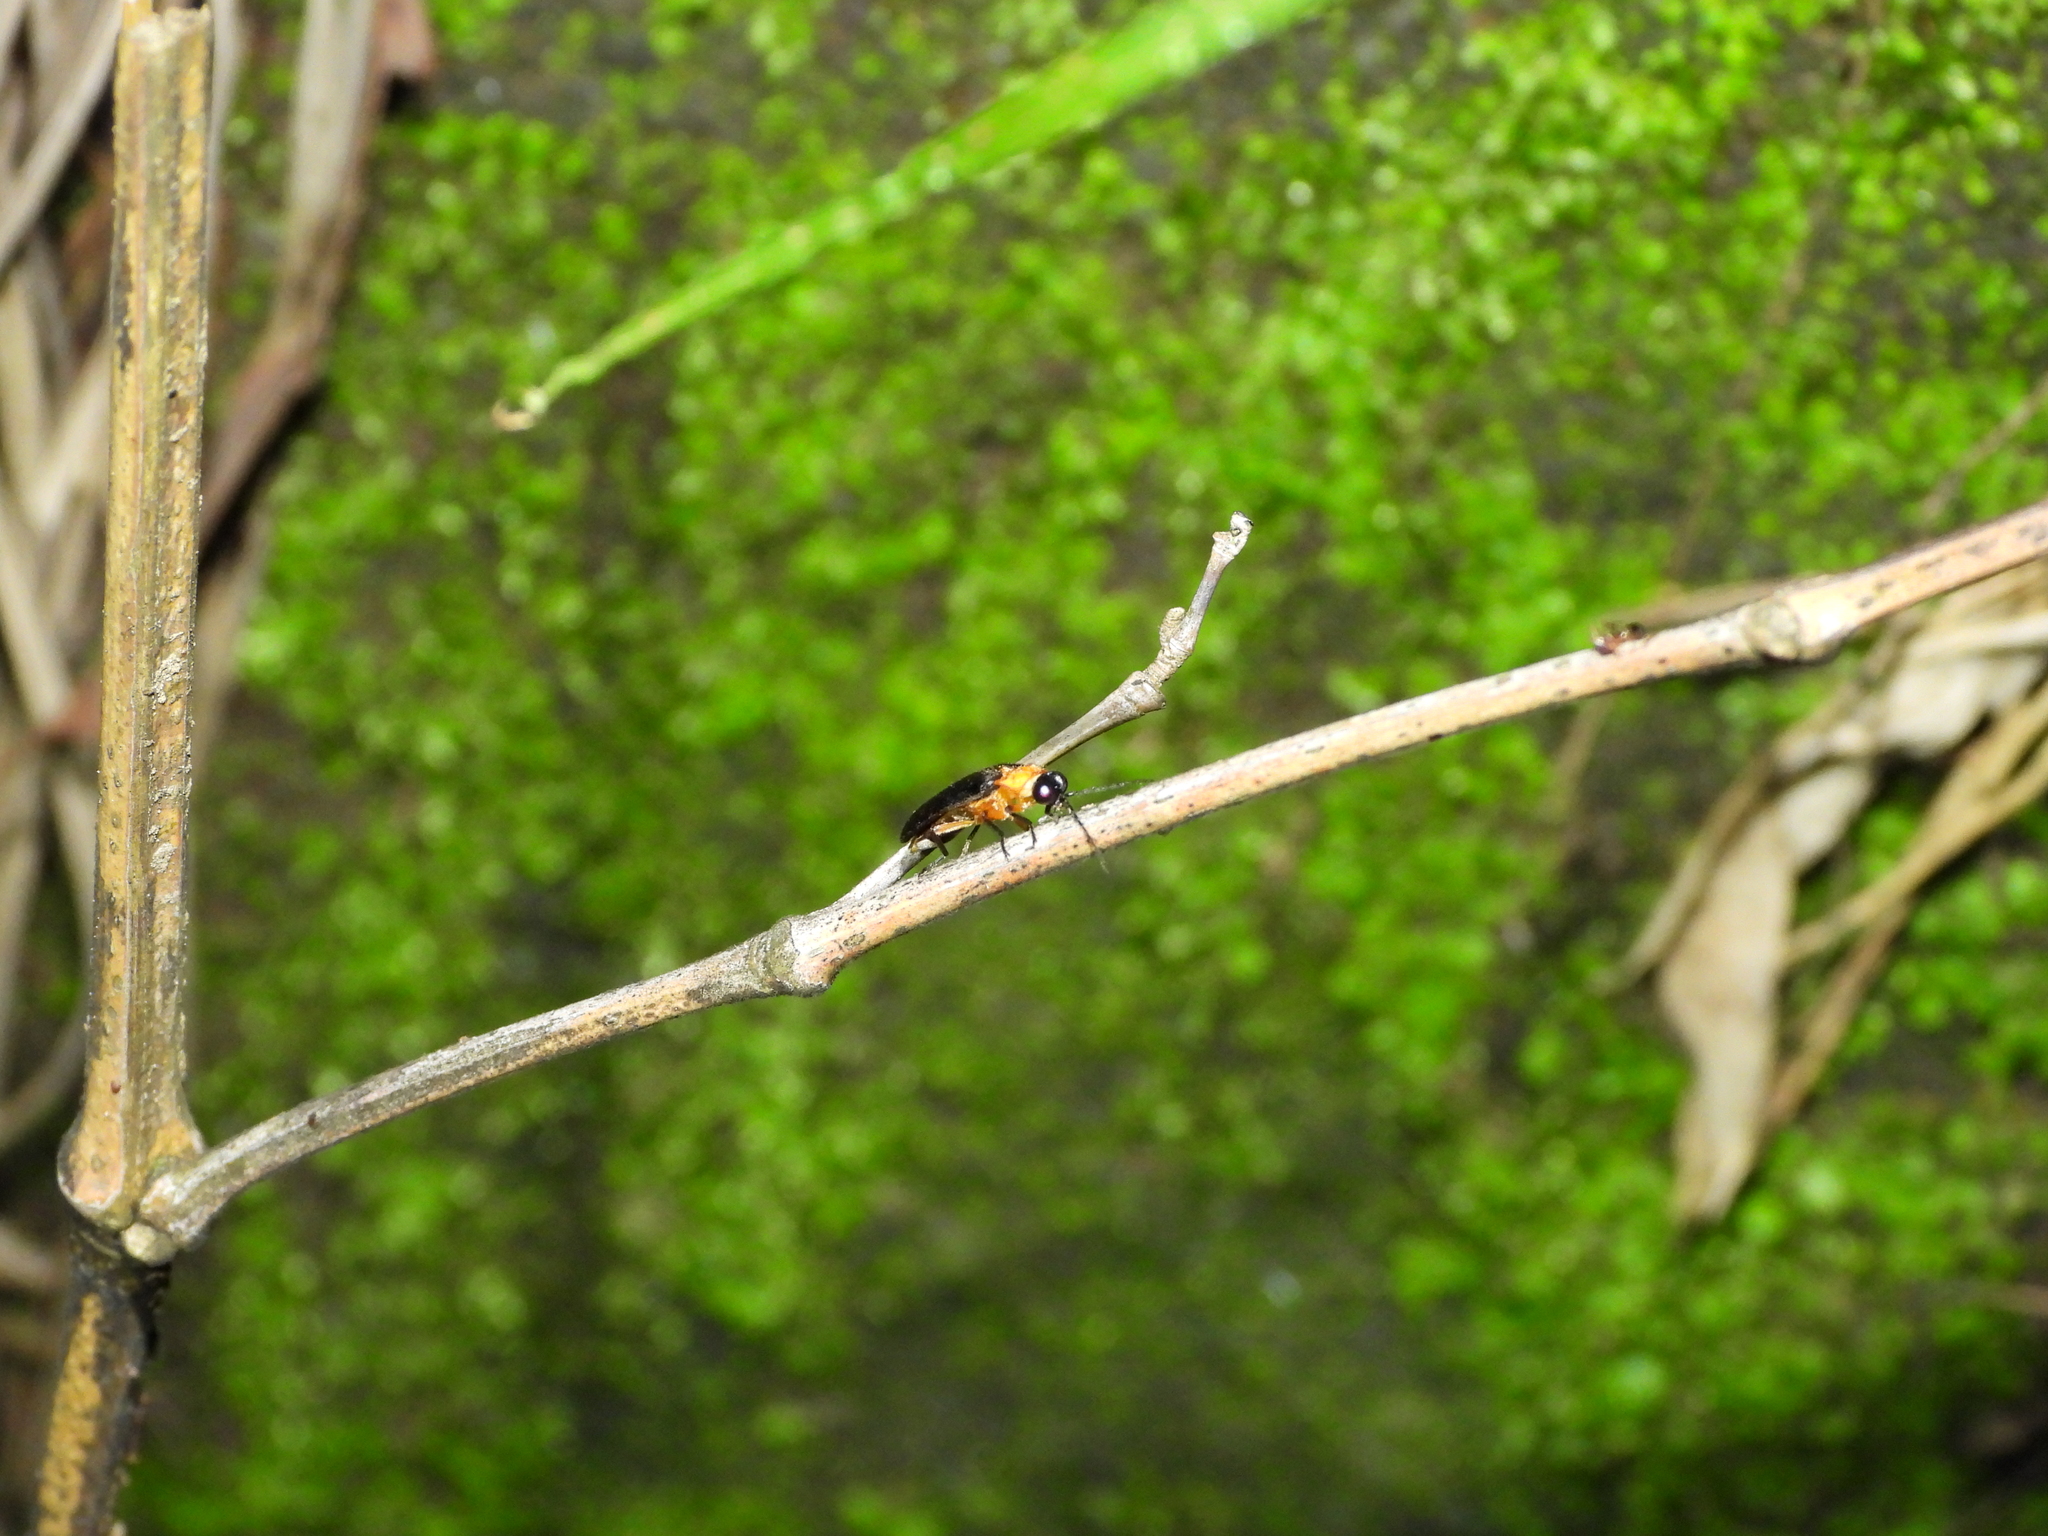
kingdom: Animalia
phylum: Arthropoda
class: Insecta
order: Coleoptera
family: Lampyridae
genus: Abscondita
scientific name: Abscondita cerata
